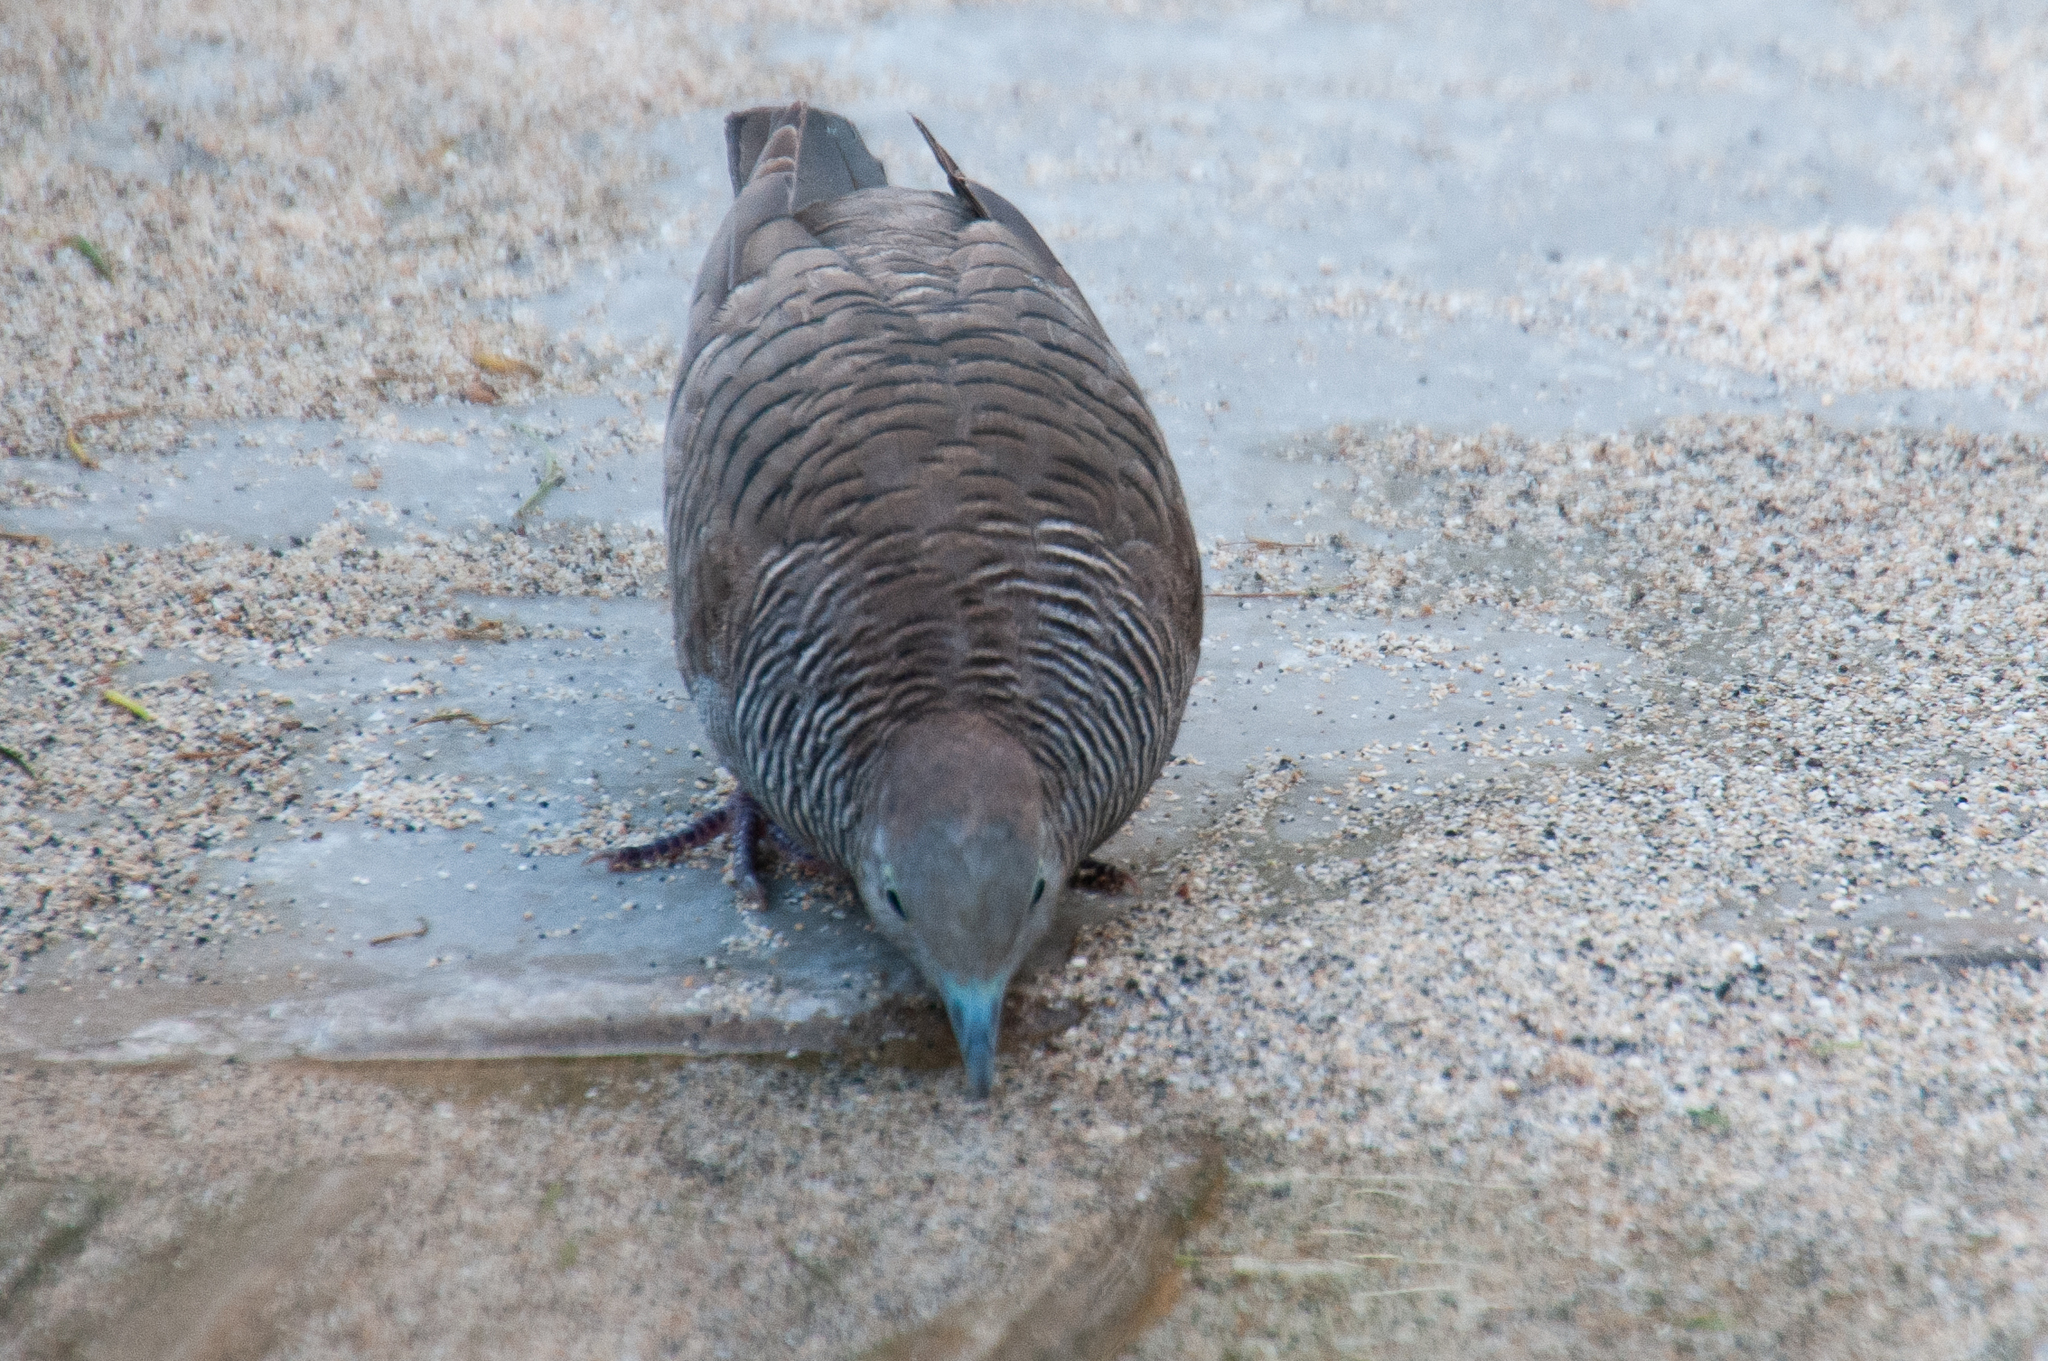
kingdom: Animalia
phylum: Chordata
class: Aves
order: Columbiformes
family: Columbidae
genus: Geopelia
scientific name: Geopelia striata
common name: Zebra dove
